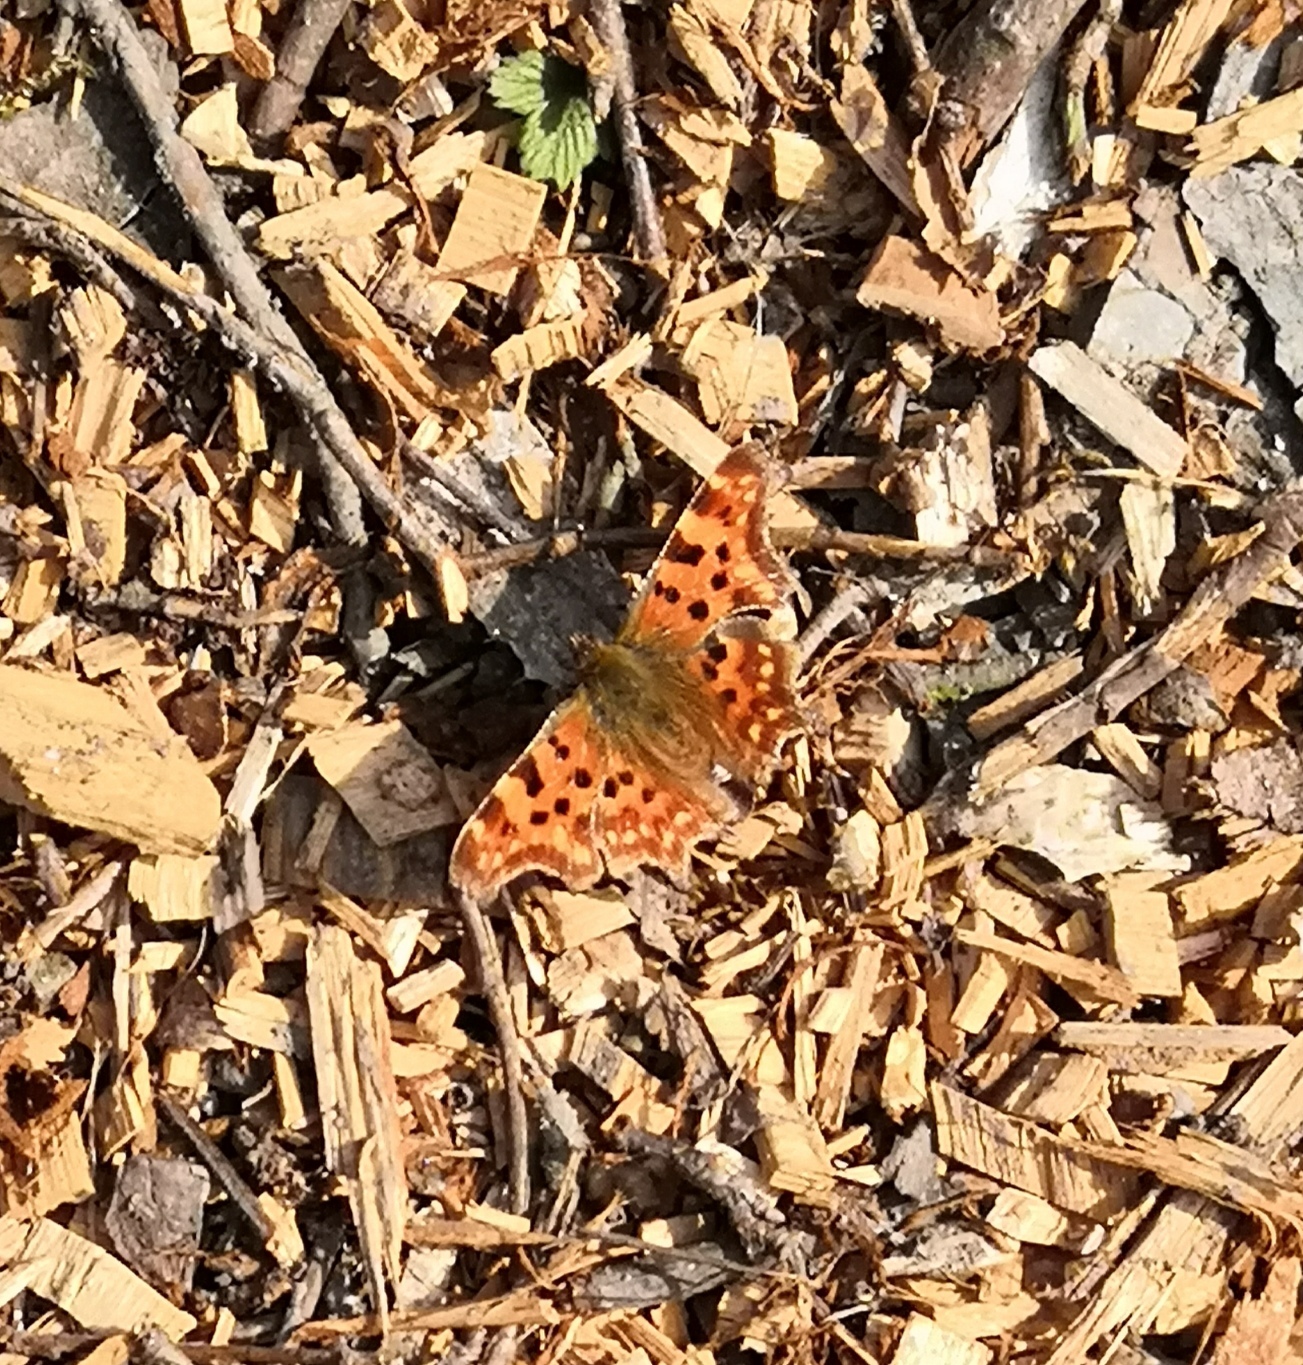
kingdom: Animalia
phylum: Arthropoda
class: Insecta
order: Lepidoptera
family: Nymphalidae
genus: Polygonia
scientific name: Polygonia c-album
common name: Comma
